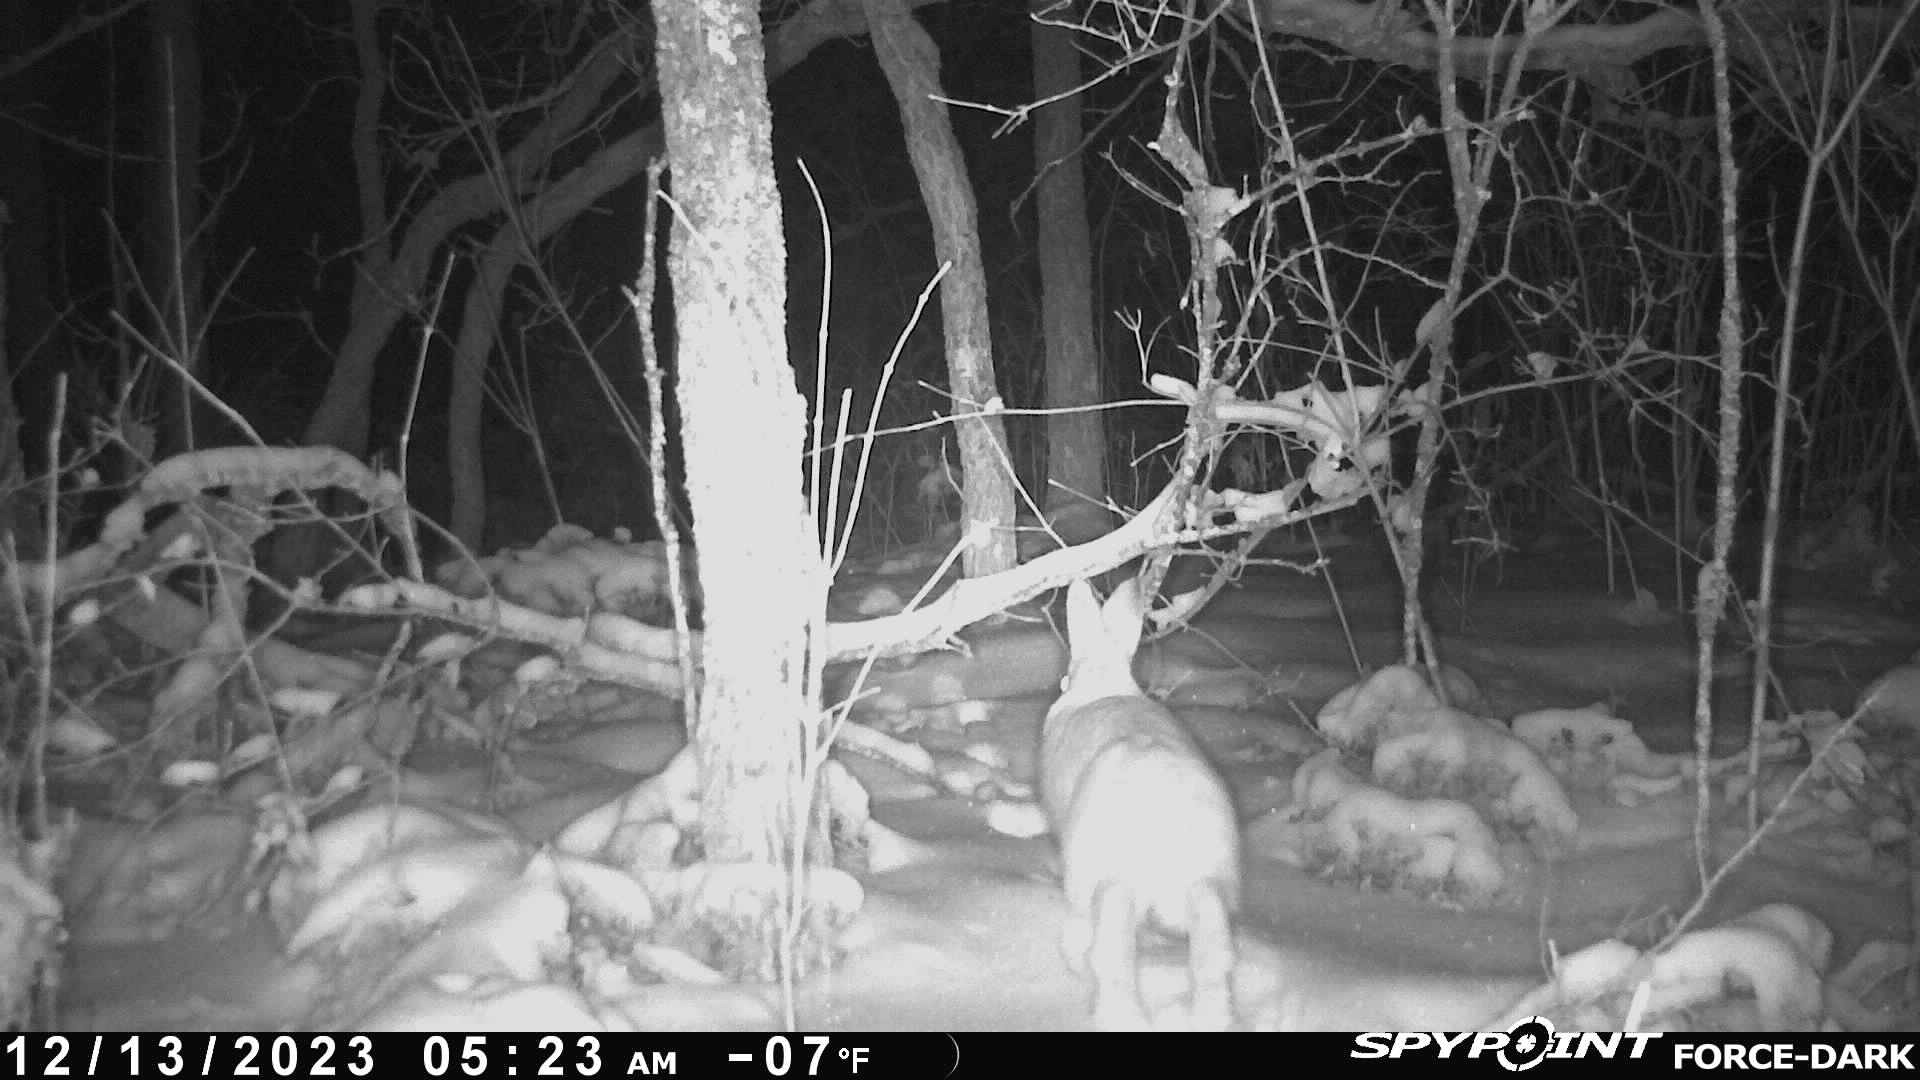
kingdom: Animalia
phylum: Chordata
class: Mammalia
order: Lagomorpha
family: Leporidae
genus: Lepus
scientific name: Lepus americanus
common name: Snowshoe hare
